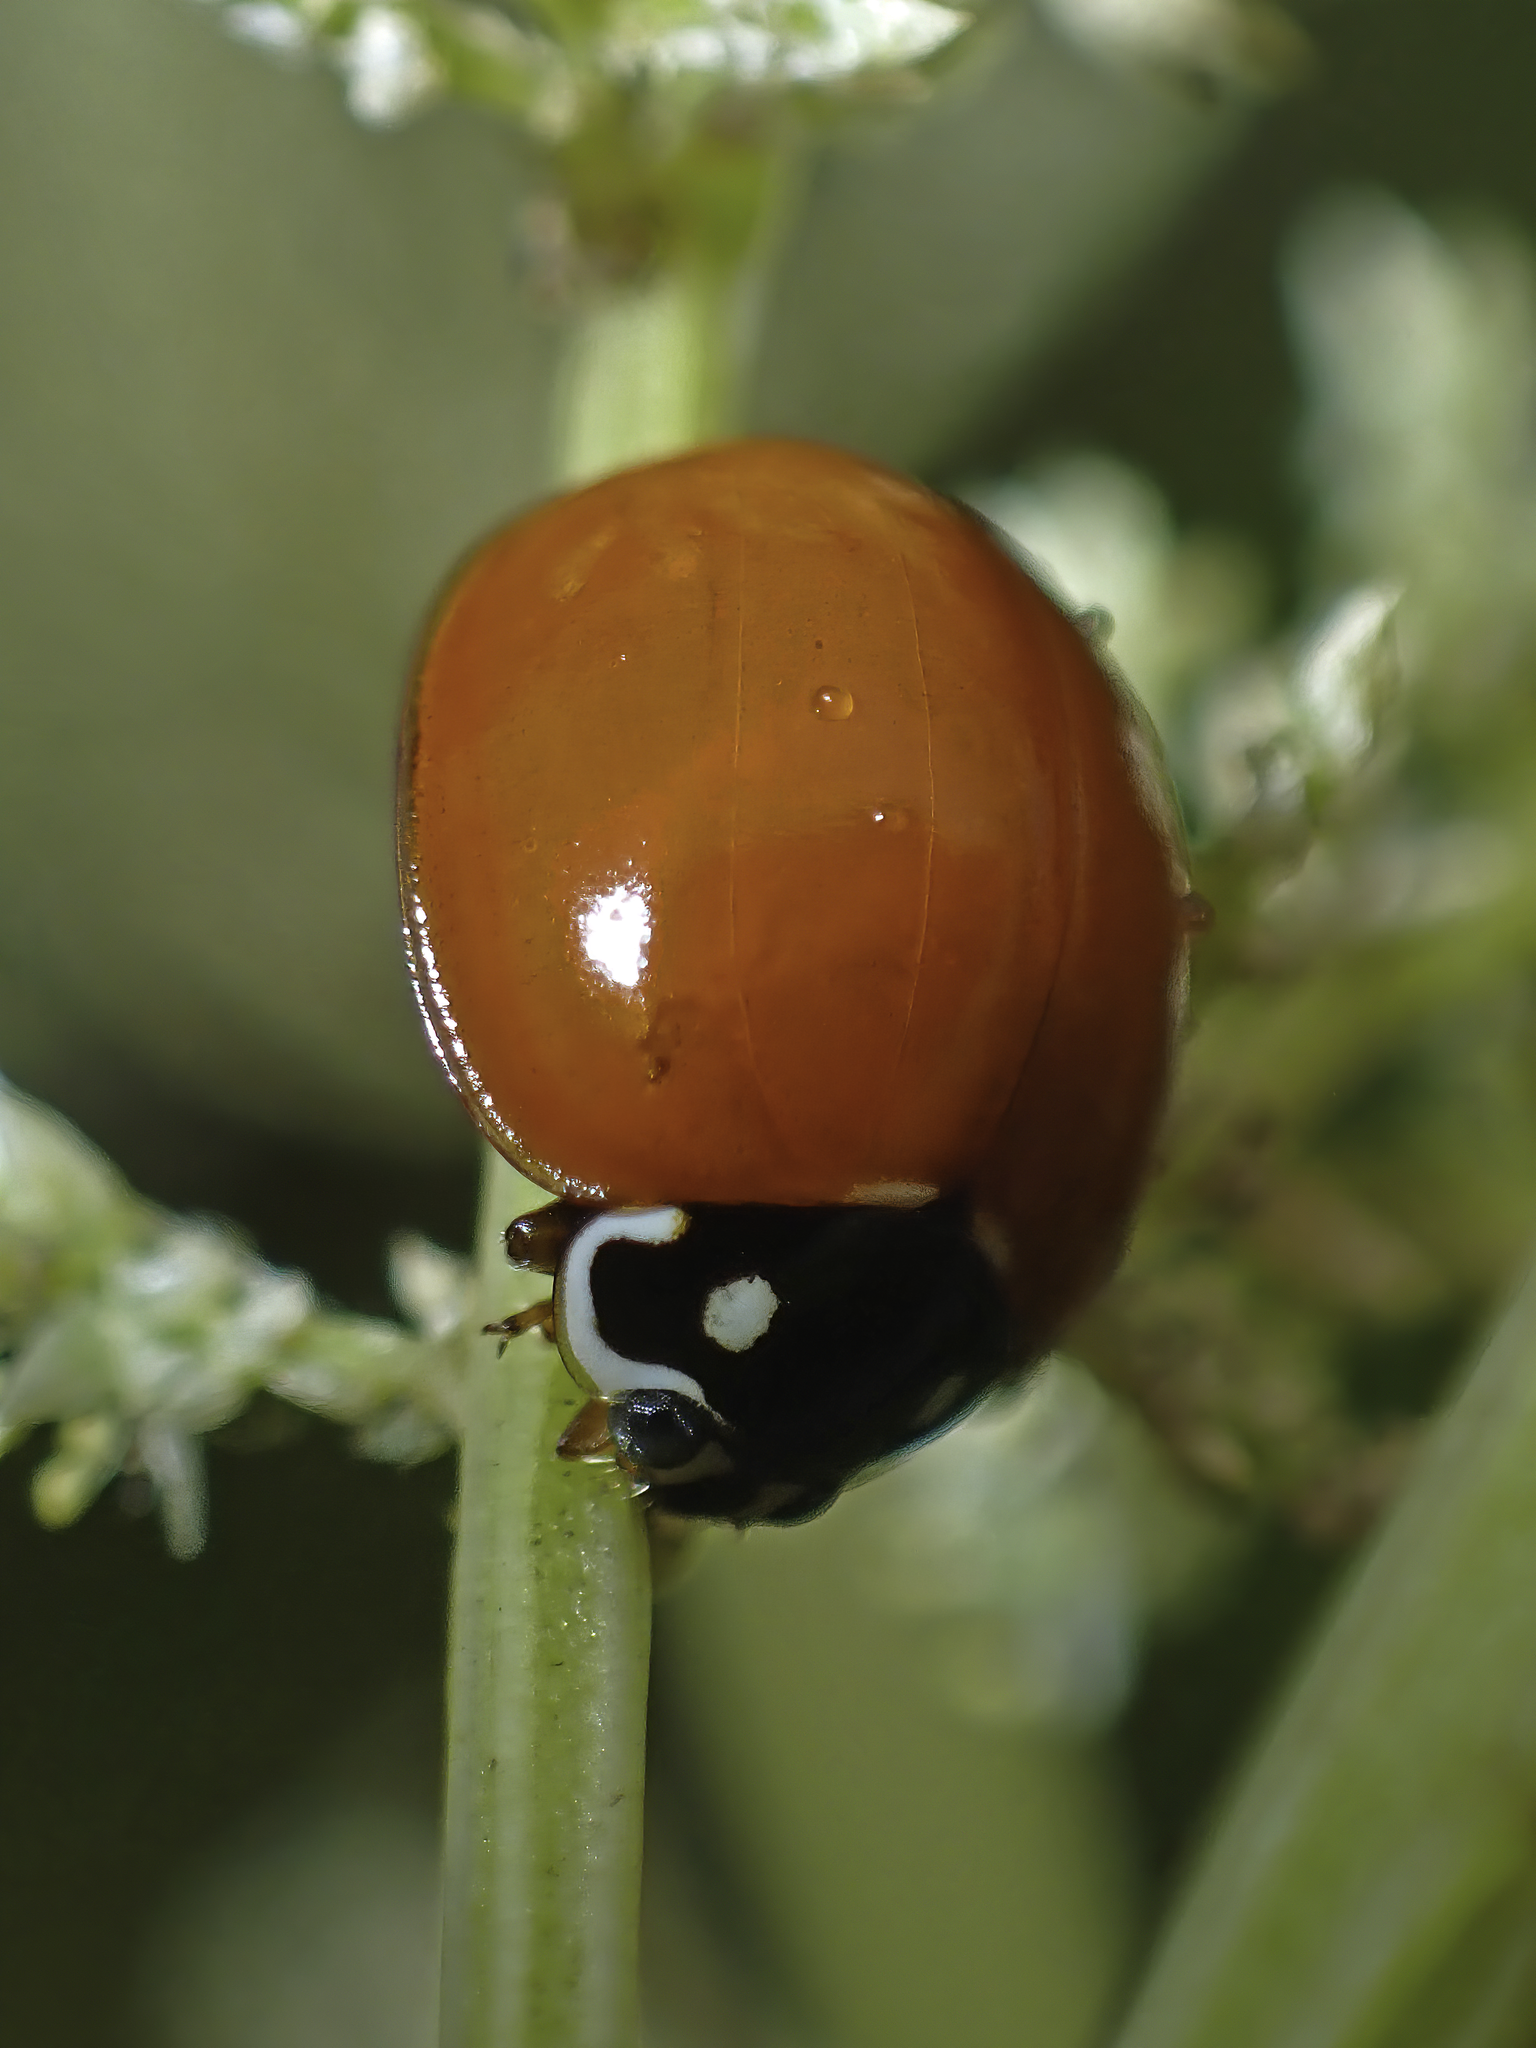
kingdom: Animalia
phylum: Arthropoda
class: Insecta
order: Coleoptera
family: Coccinellidae
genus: Cycloneda
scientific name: Cycloneda sanguinea
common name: Ladybird beetle
